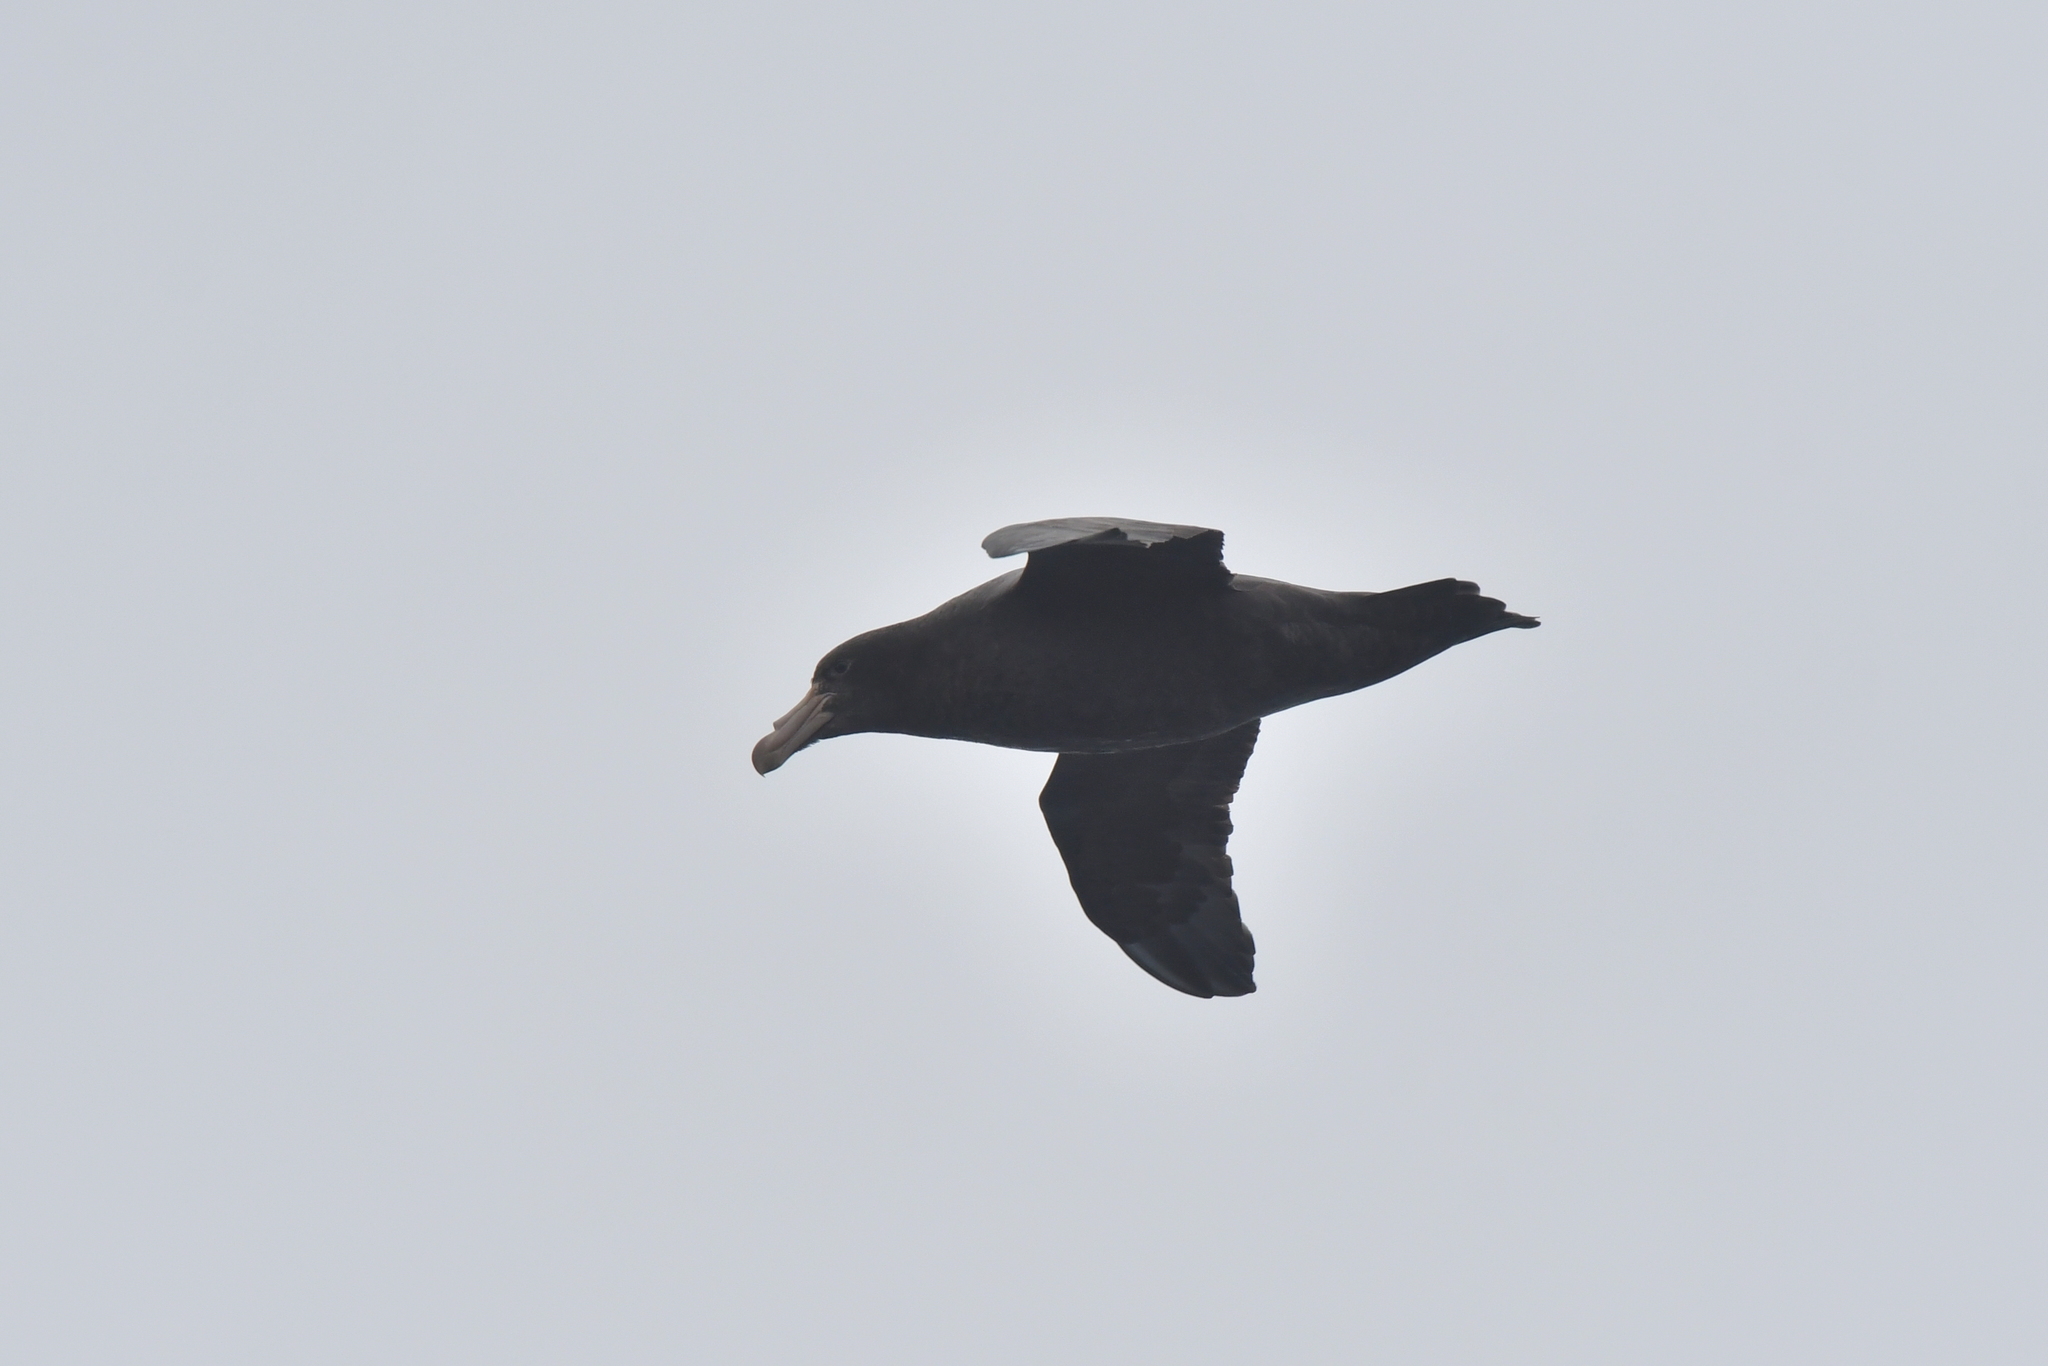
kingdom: Animalia
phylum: Chordata
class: Aves
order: Procellariiformes
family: Procellariidae
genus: Macronectes
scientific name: Macronectes halli
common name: Northern giant petrel
